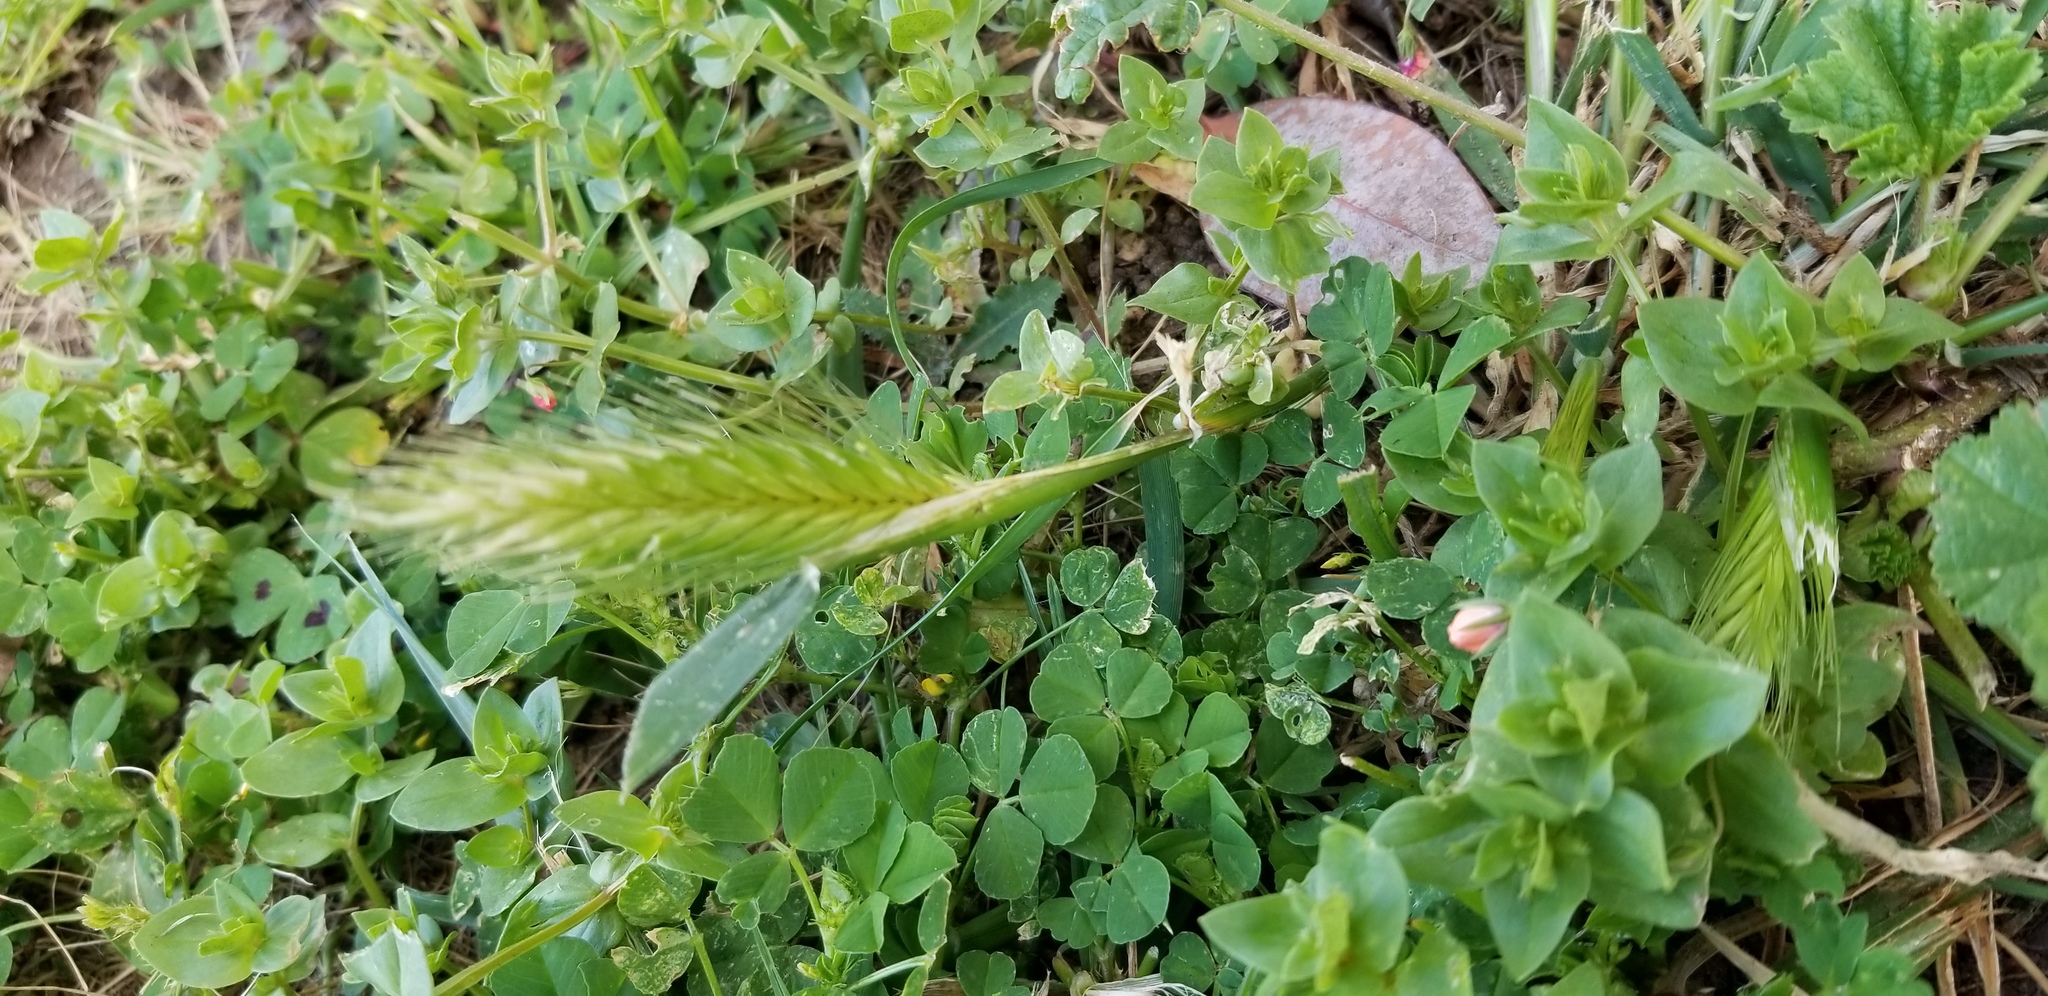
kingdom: Plantae
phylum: Tracheophyta
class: Liliopsida
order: Poales
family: Poaceae
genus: Hordeum
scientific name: Hordeum murinum
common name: Wall barley
